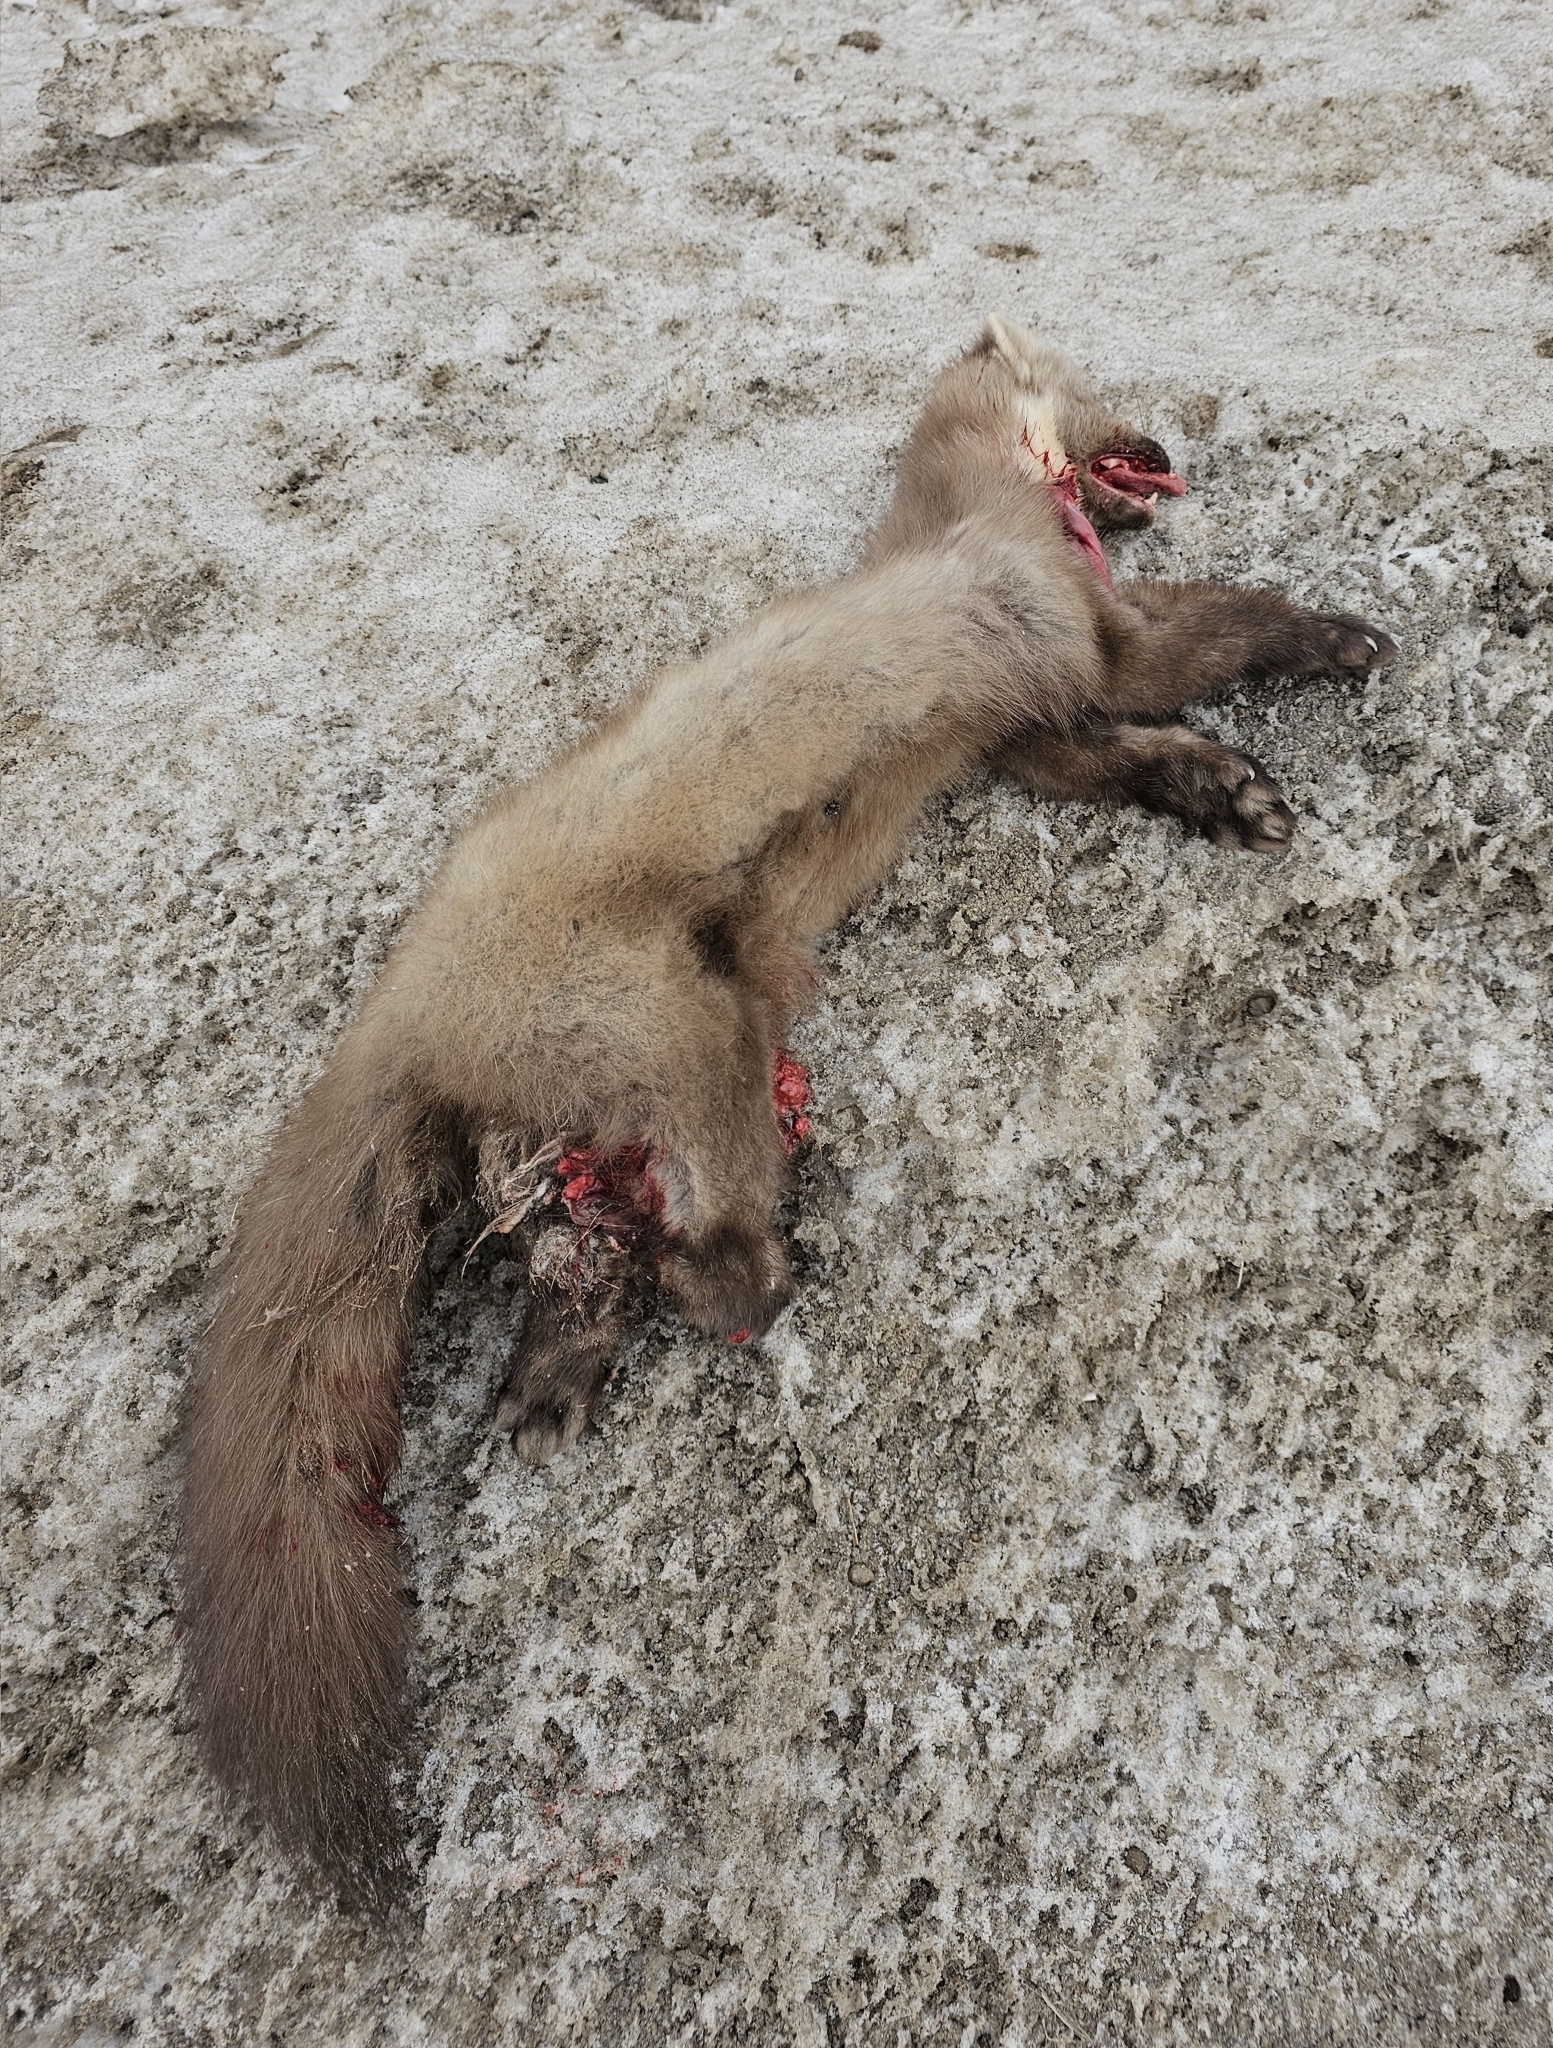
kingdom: Animalia
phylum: Chordata
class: Mammalia
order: Carnivora
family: Mustelidae
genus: Martes
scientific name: Martes martes
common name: European pine marten
